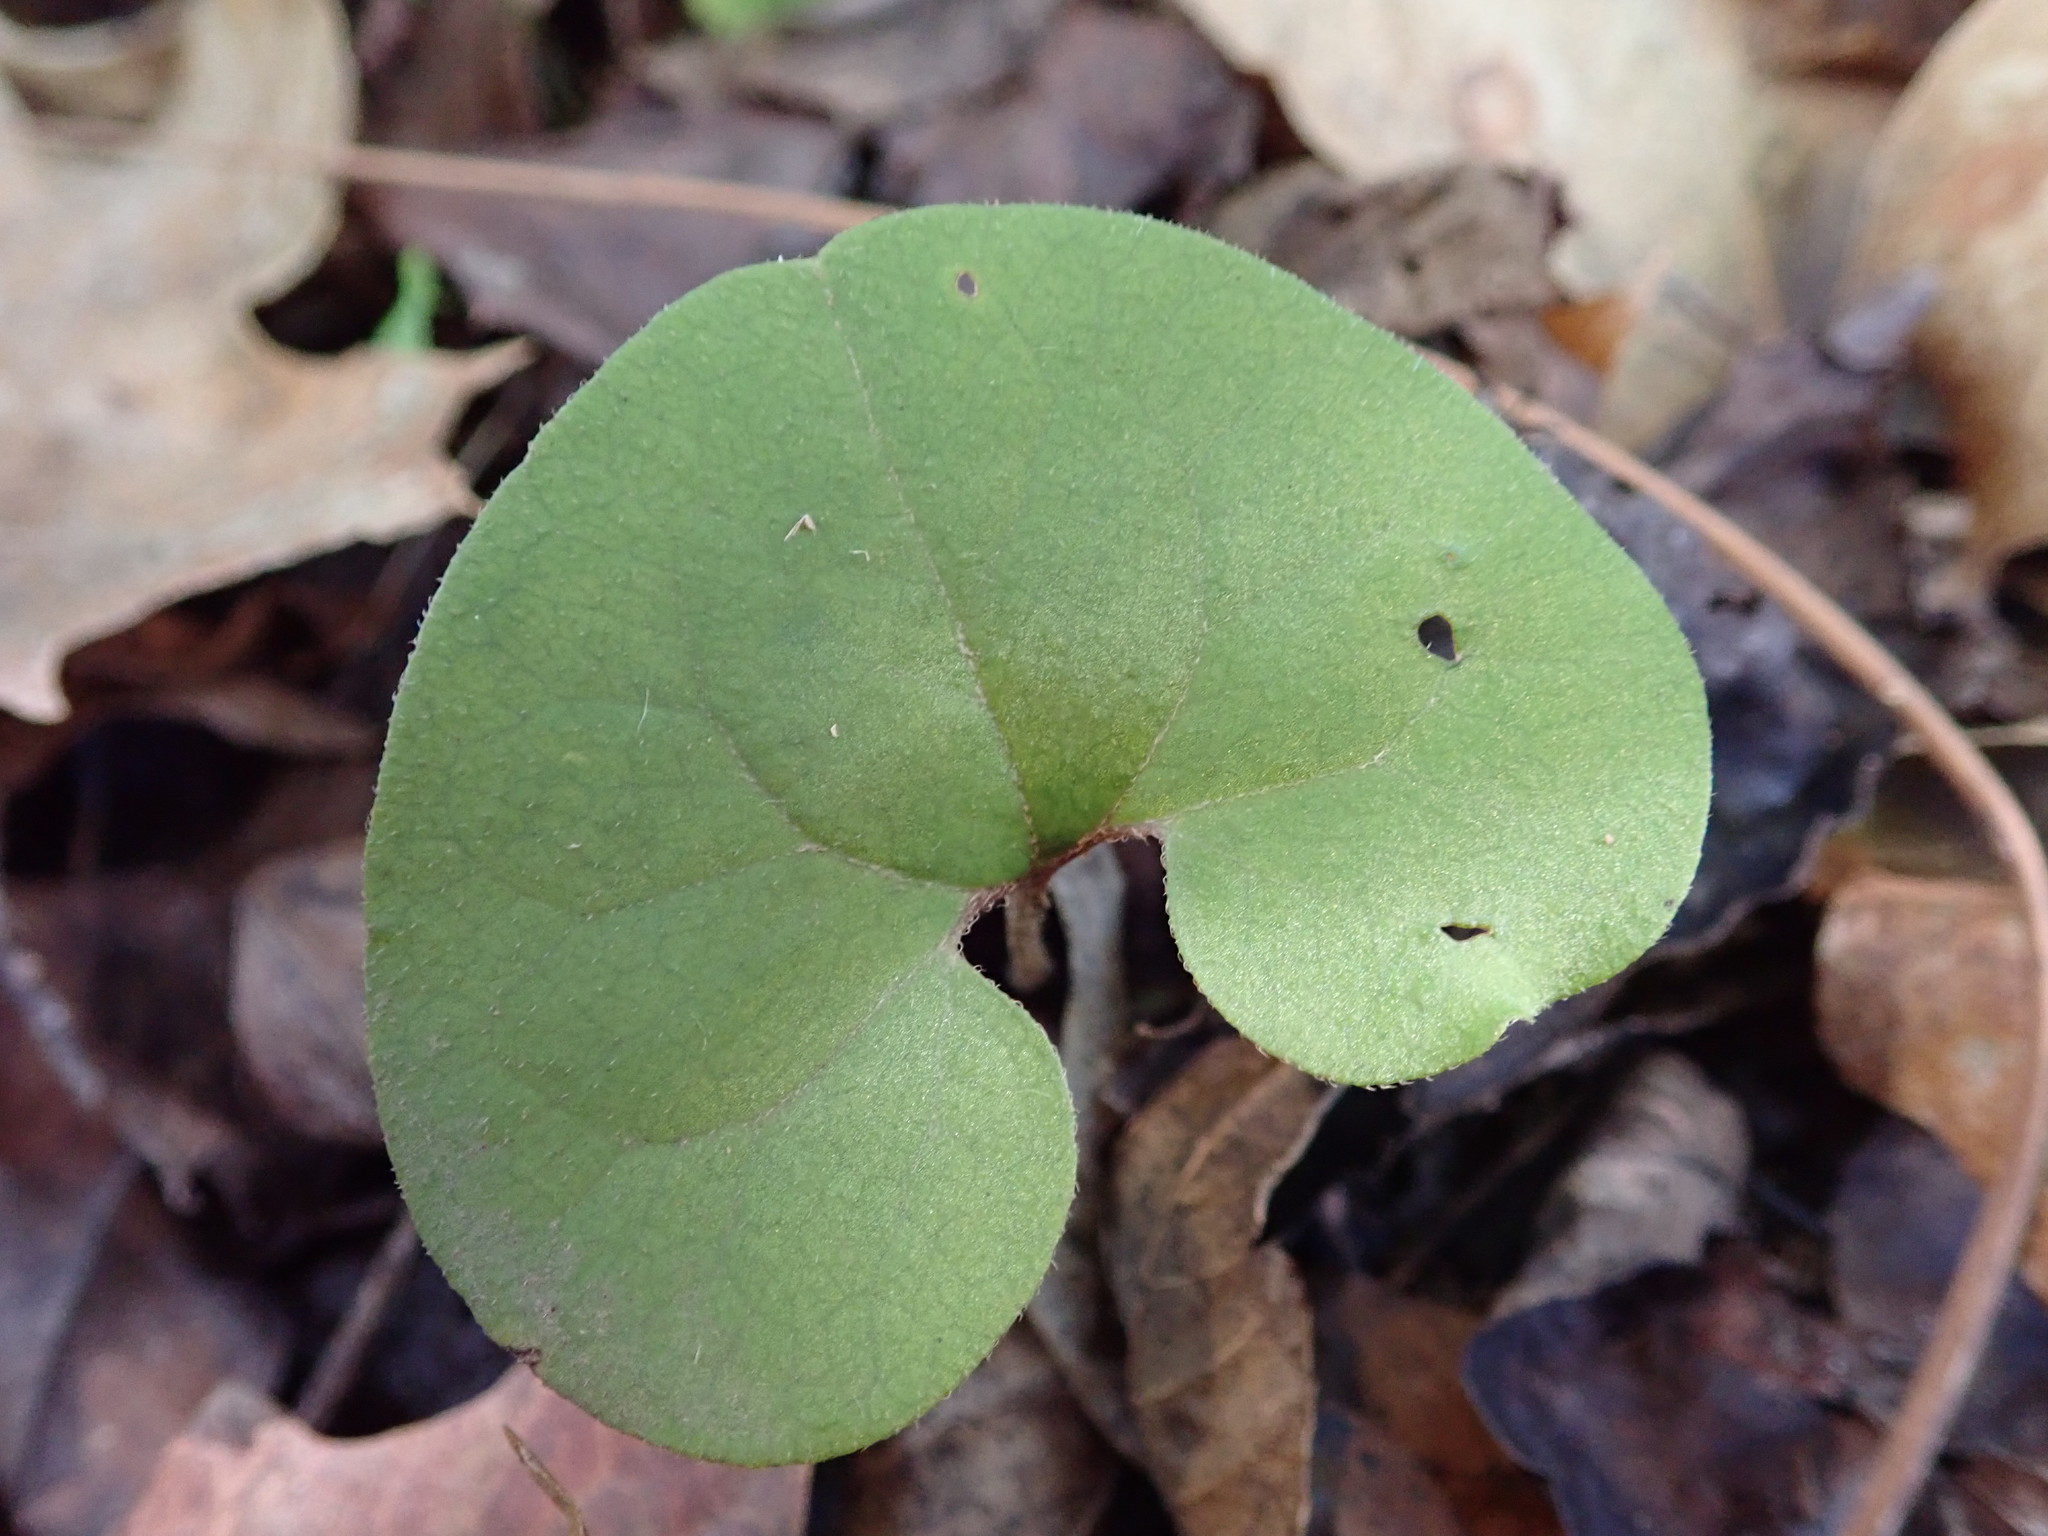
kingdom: Plantae
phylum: Tracheophyta
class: Magnoliopsida
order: Piperales
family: Aristolochiaceae
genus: Asarum
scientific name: Asarum canadense
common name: Wild ginger
